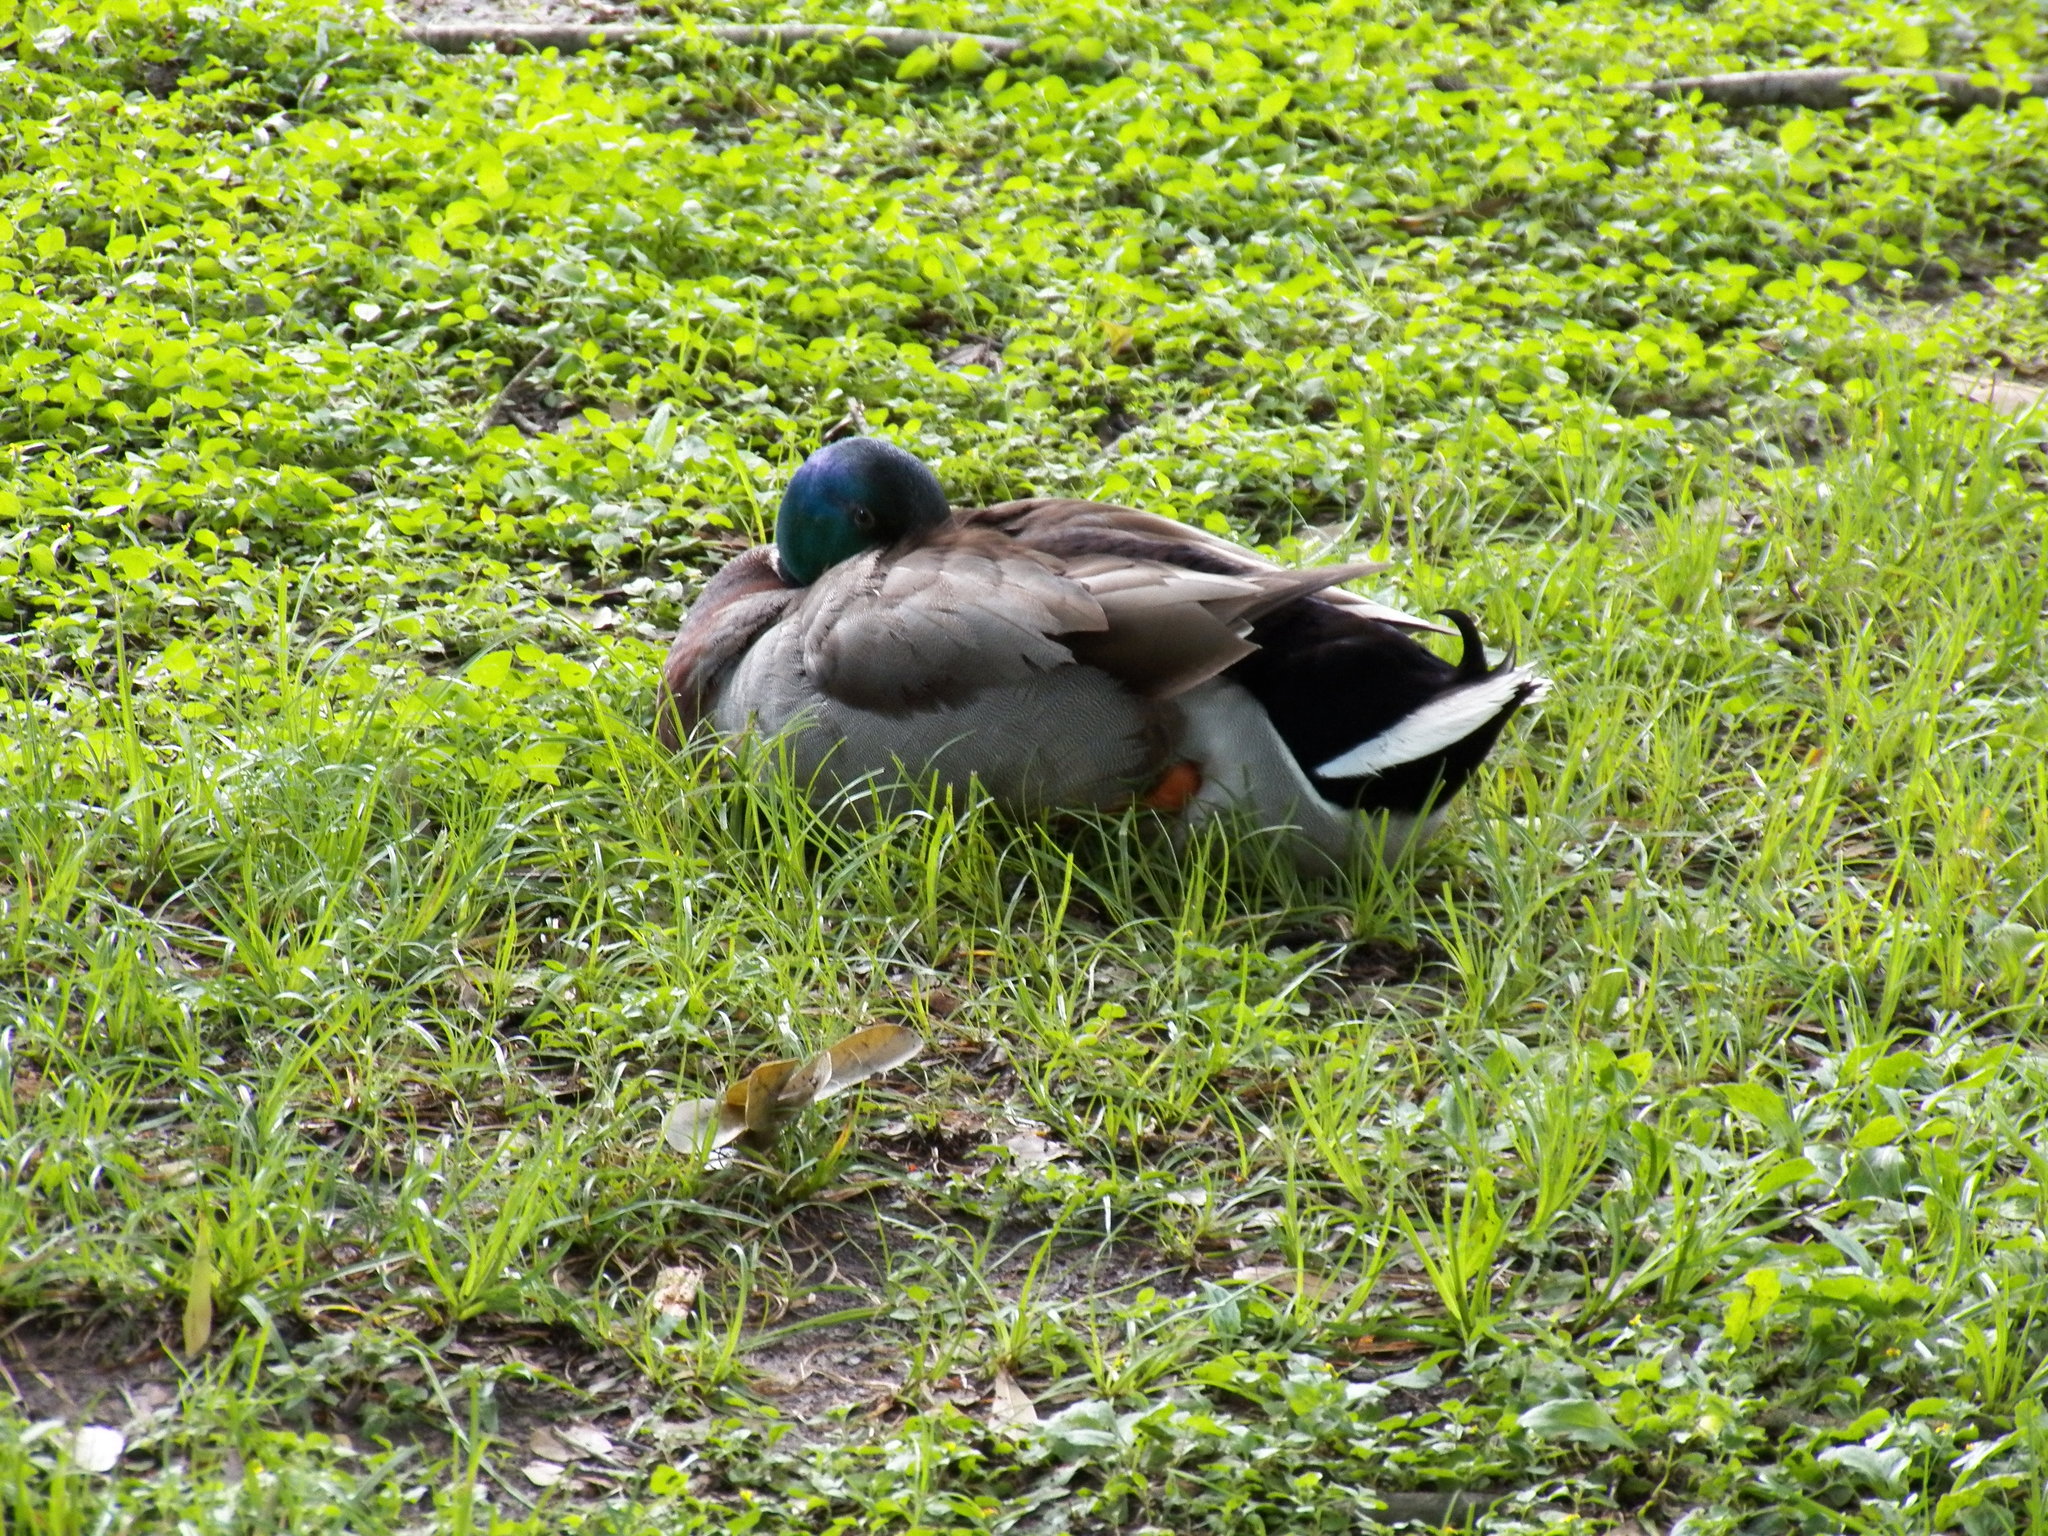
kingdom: Animalia
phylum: Chordata
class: Aves
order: Anseriformes
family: Anatidae
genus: Anas
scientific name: Anas platyrhynchos
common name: Mallard
